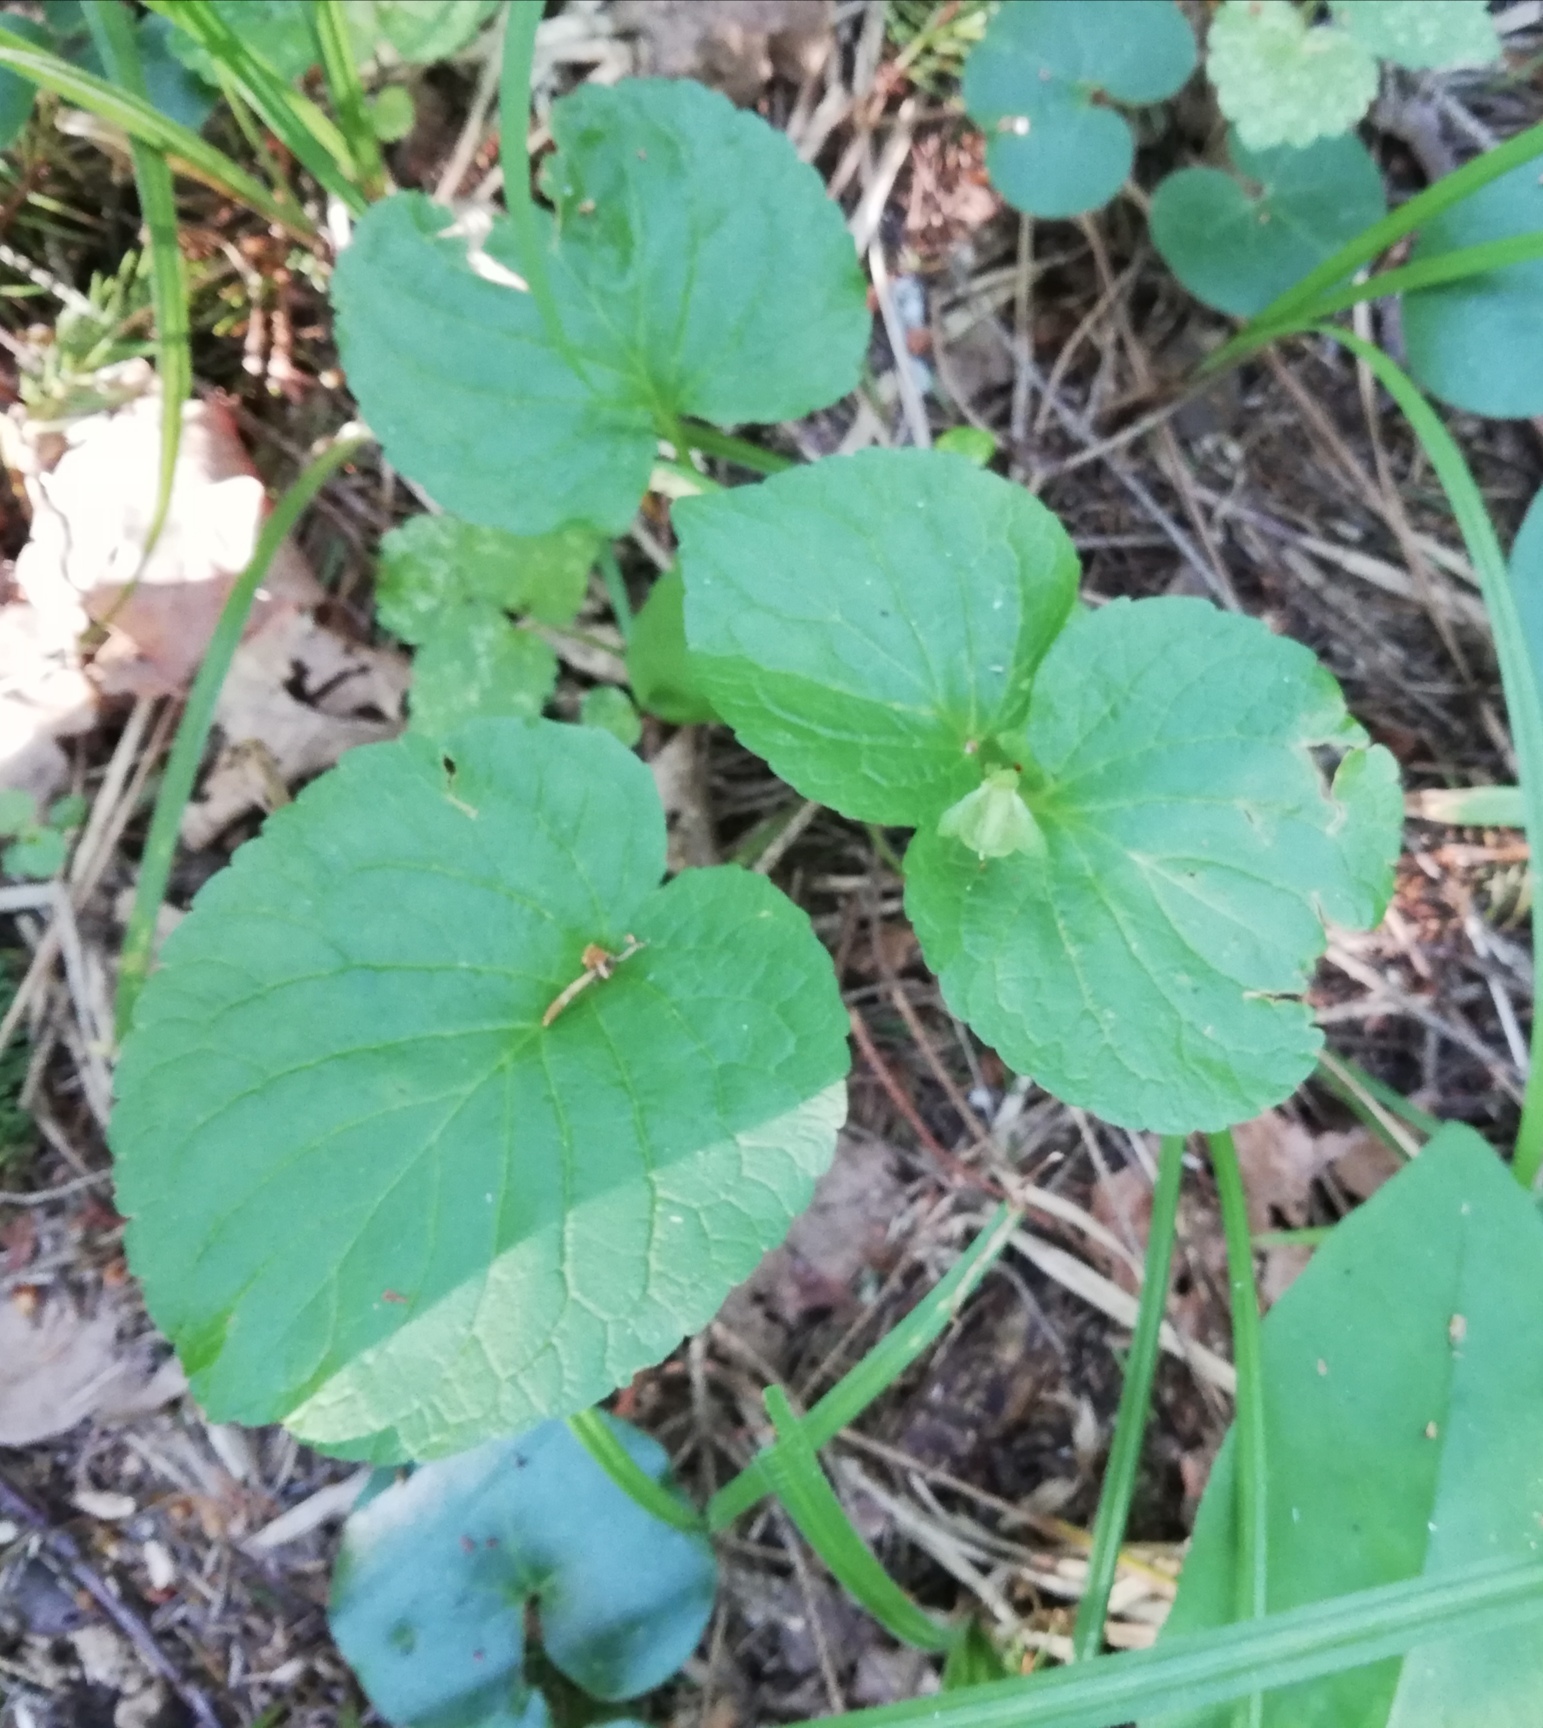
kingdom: Plantae
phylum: Tracheophyta
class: Magnoliopsida
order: Malpighiales
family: Violaceae
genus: Viola
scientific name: Viola mirabilis
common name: Wonder violet
